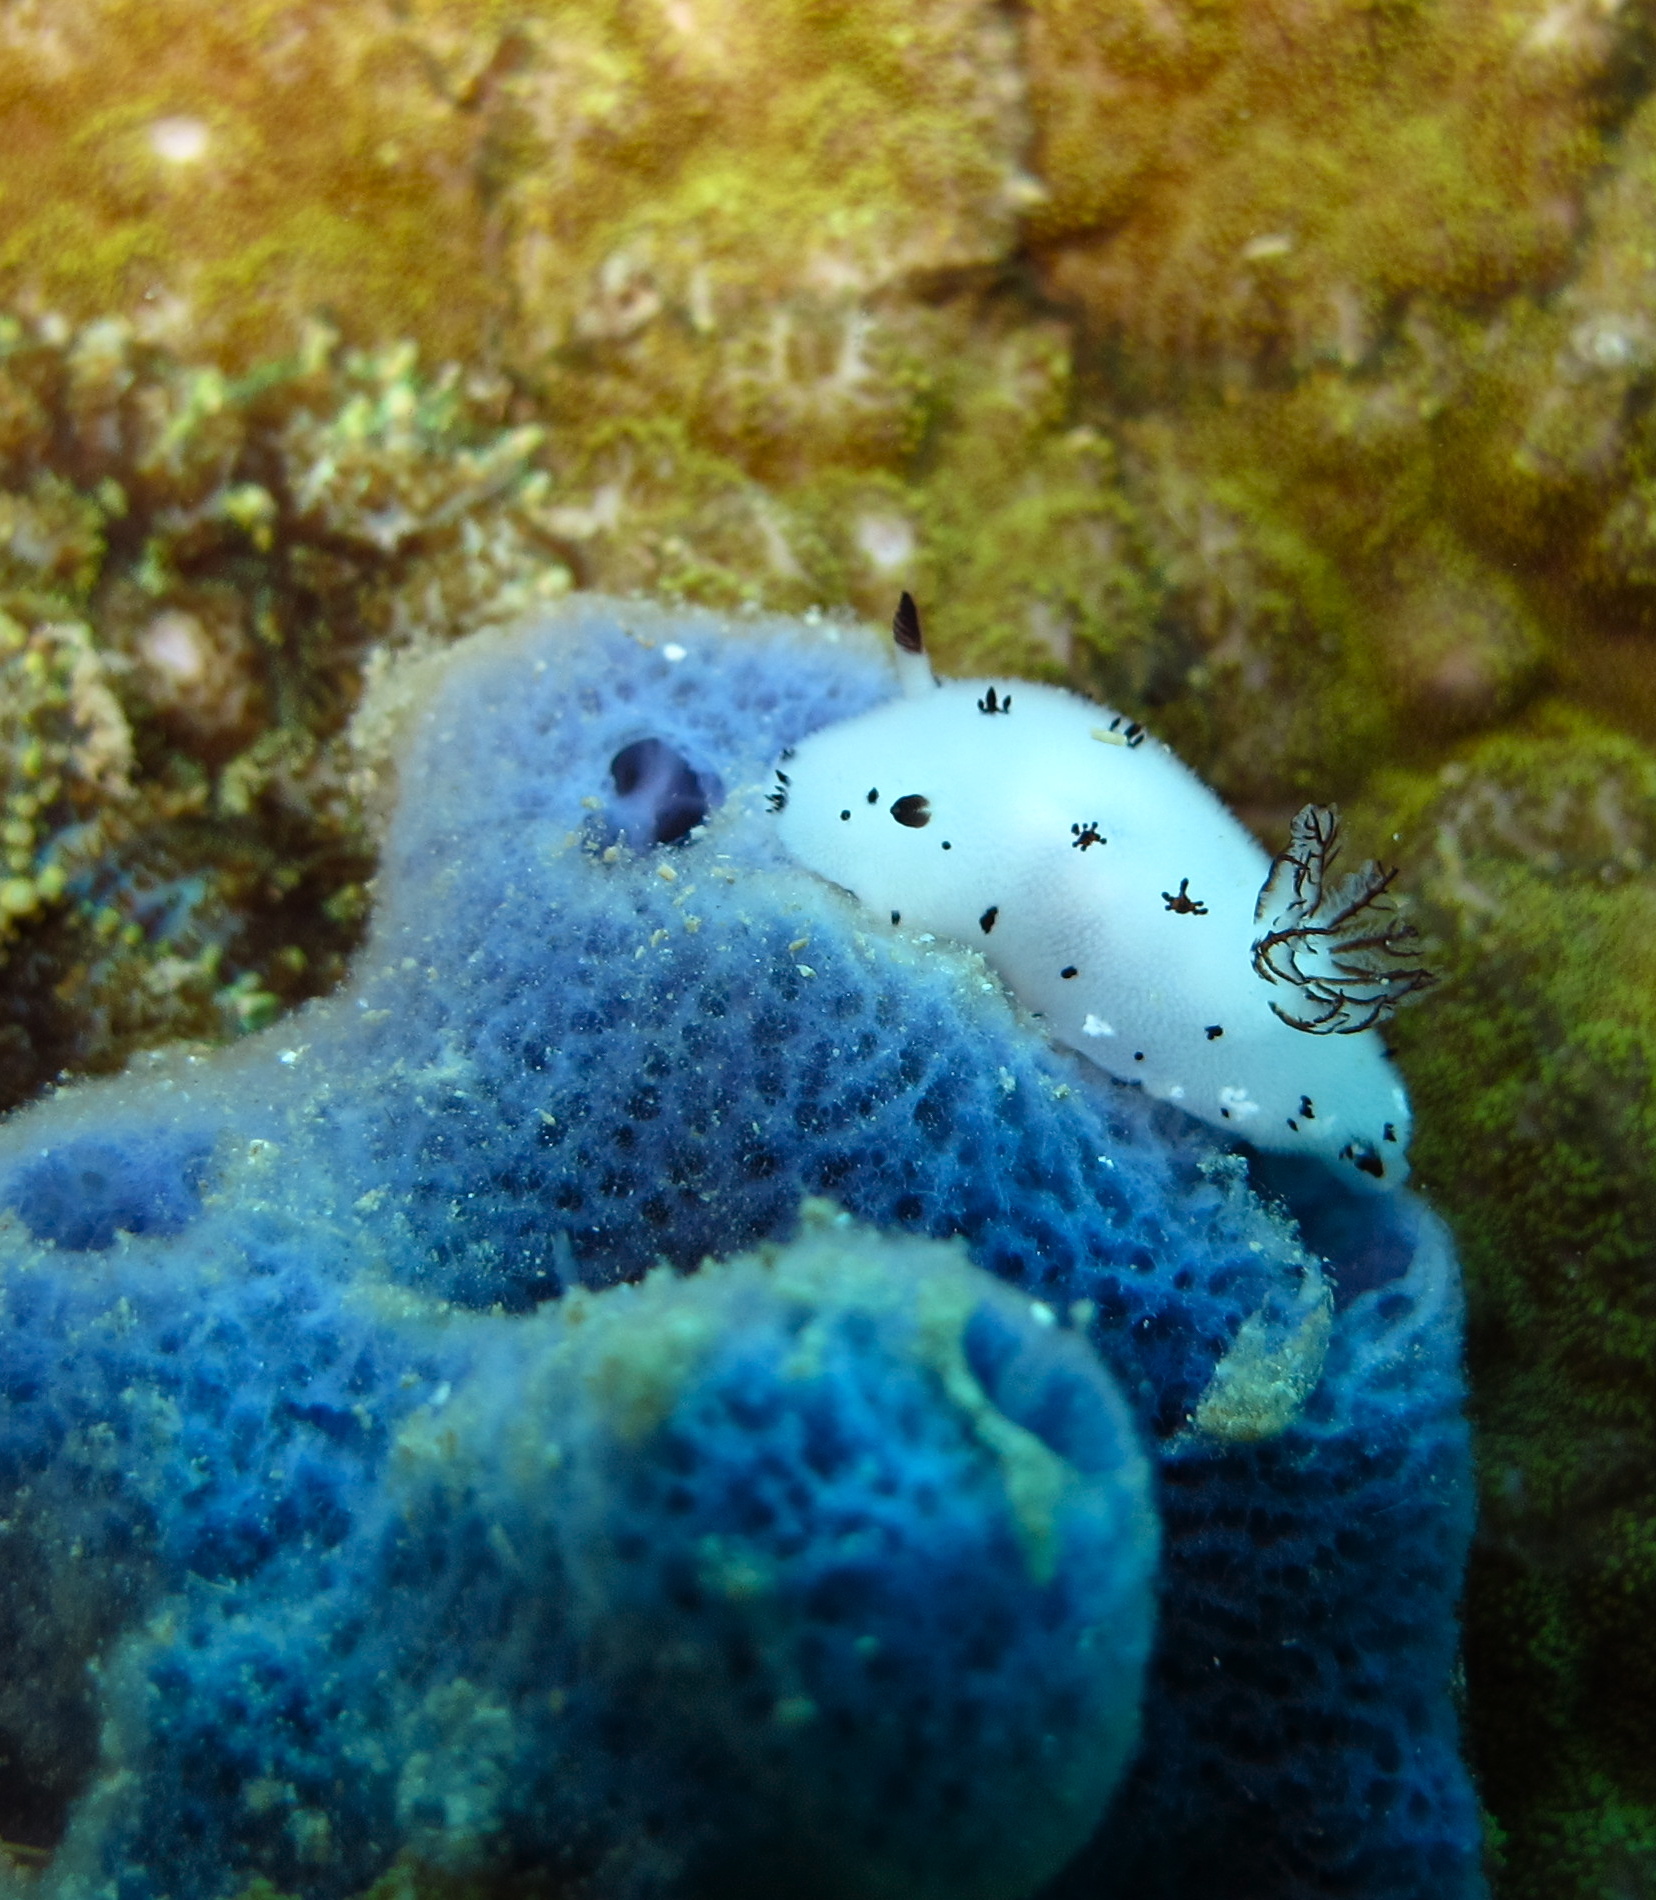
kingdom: Animalia
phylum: Mollusca
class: Gastropoda
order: Nudibranchia
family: Discodorididae
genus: Jorunna
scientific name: Jorunna funebris
